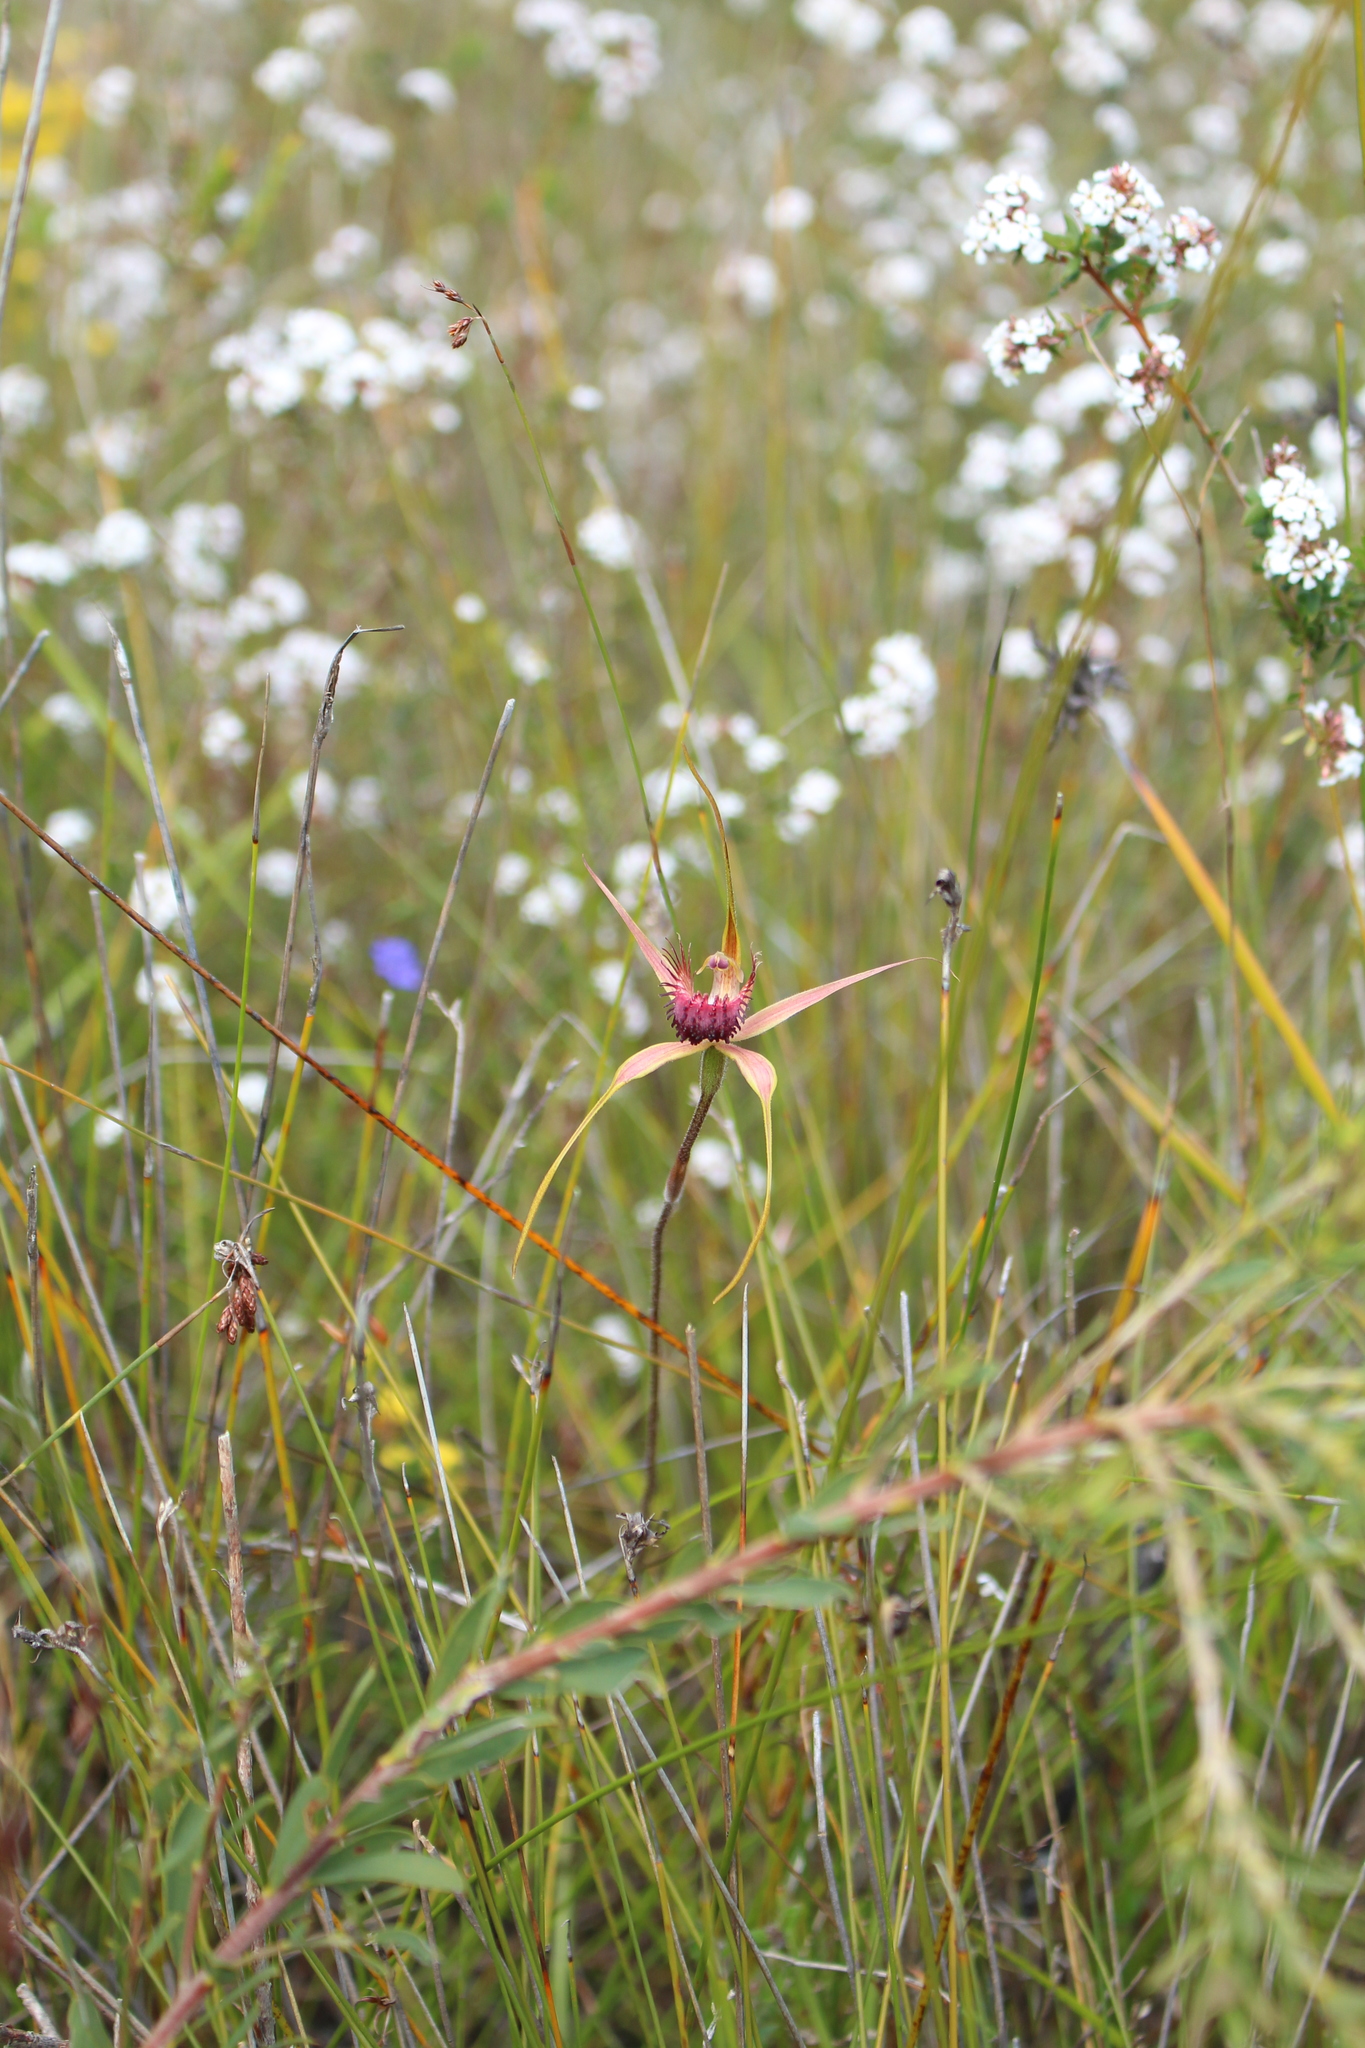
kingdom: Plantae
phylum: Tracheophyta
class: Liliopsida
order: Asparagales
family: Orchidaceae
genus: Caladenia
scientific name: Caladenia pectinata
